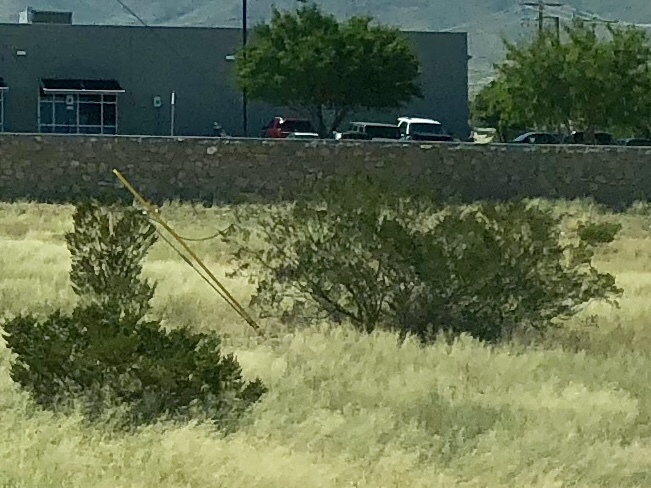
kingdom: Plantae
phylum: Tracheophyta
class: Magnoliopsida
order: Zygophyllales
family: Zygophyllaceae
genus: Larrea
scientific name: Larrea tridentata
